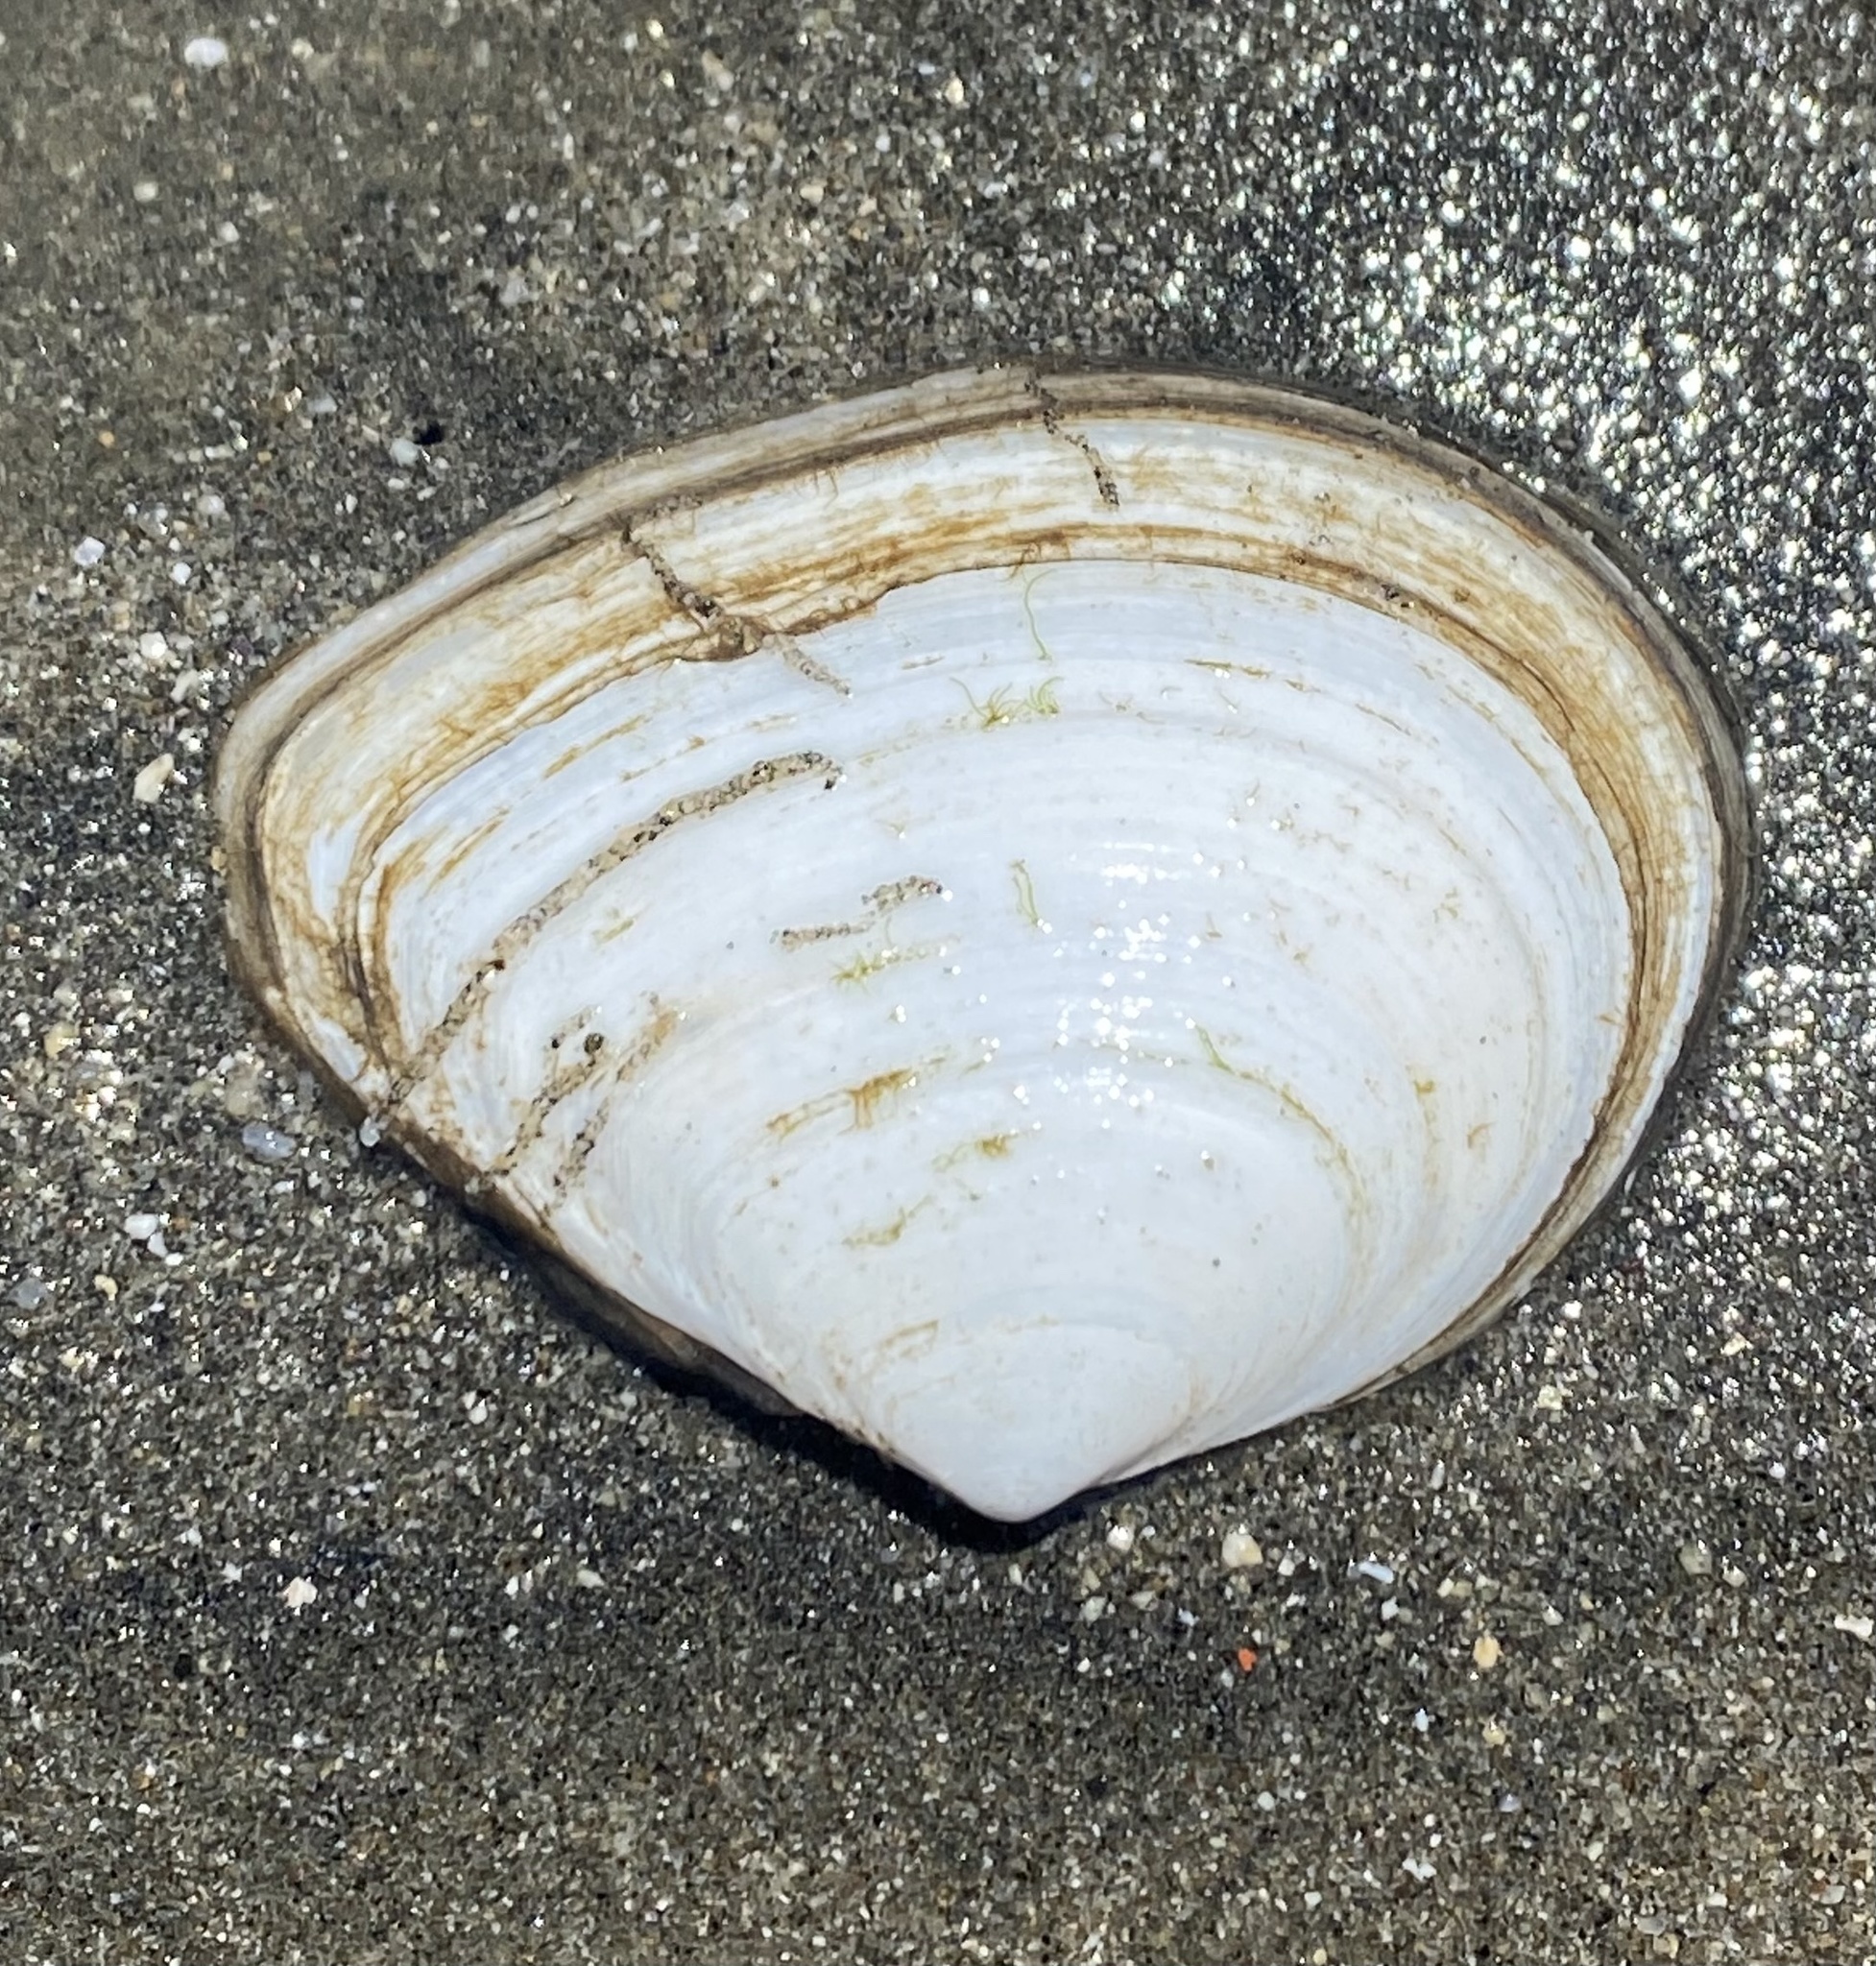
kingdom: Animalia
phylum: Mollusca
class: Bivalvia
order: Cardiida
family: Tellinidae
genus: Macoma
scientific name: Macoma nasuta
